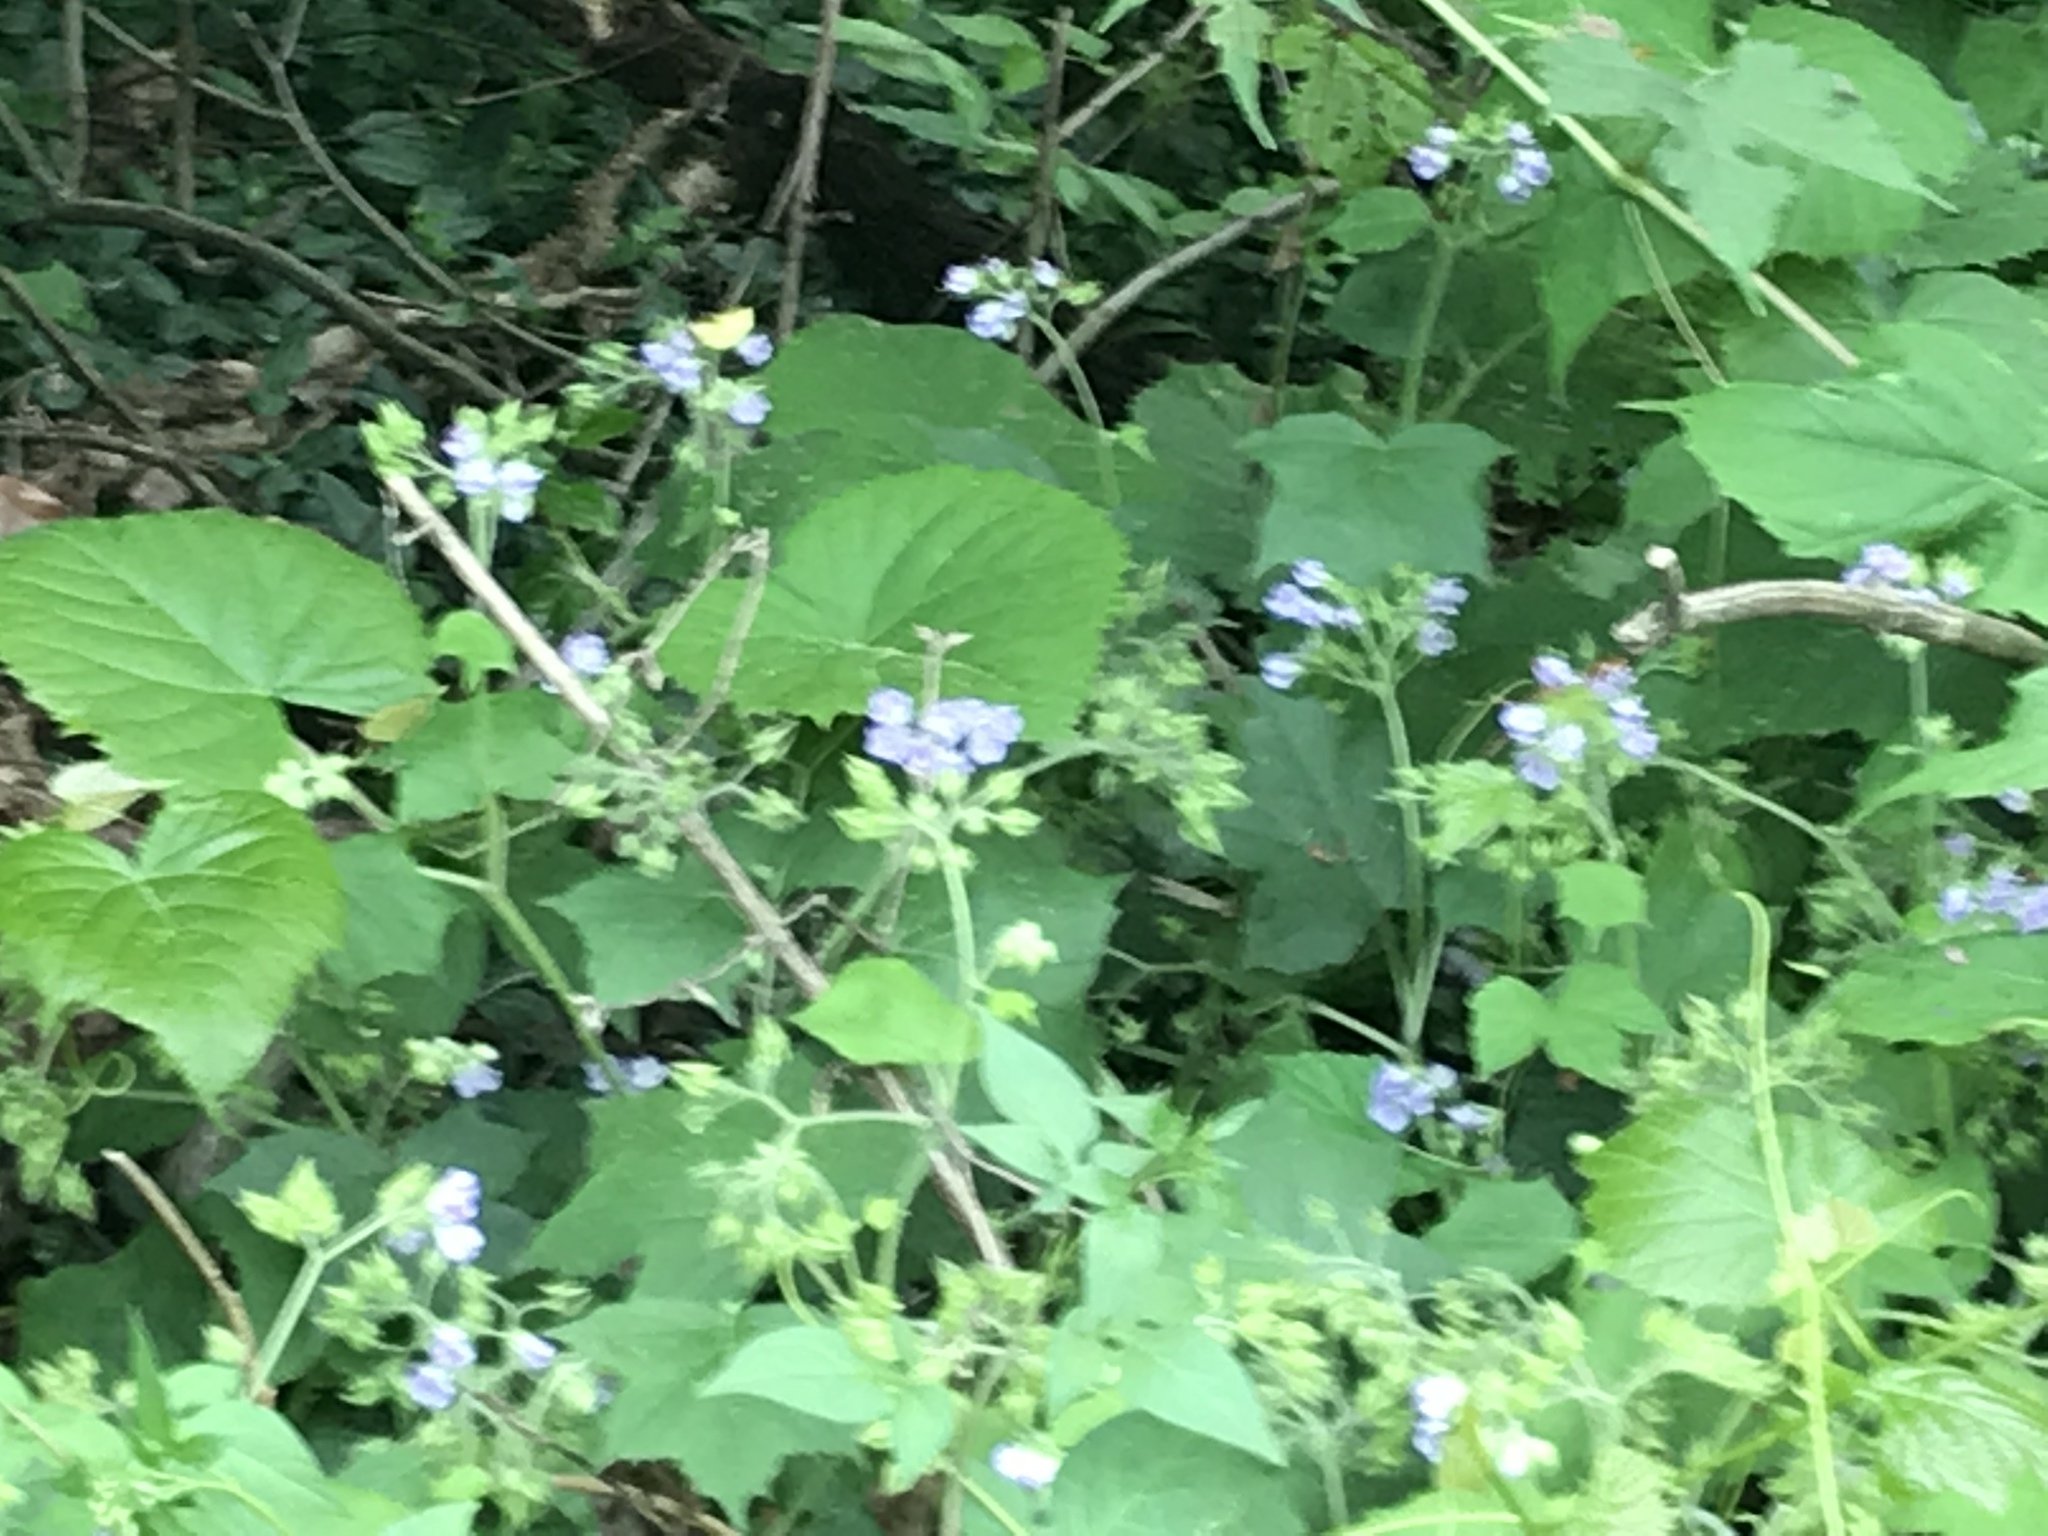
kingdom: Plantae
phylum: Tracheophyta
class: Magnoliopsida
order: Boraginales
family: Hydrophyllaceae
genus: Hydrophyllum
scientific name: Hydrophyllum appendiculatum
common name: Appendaged waterleaf
